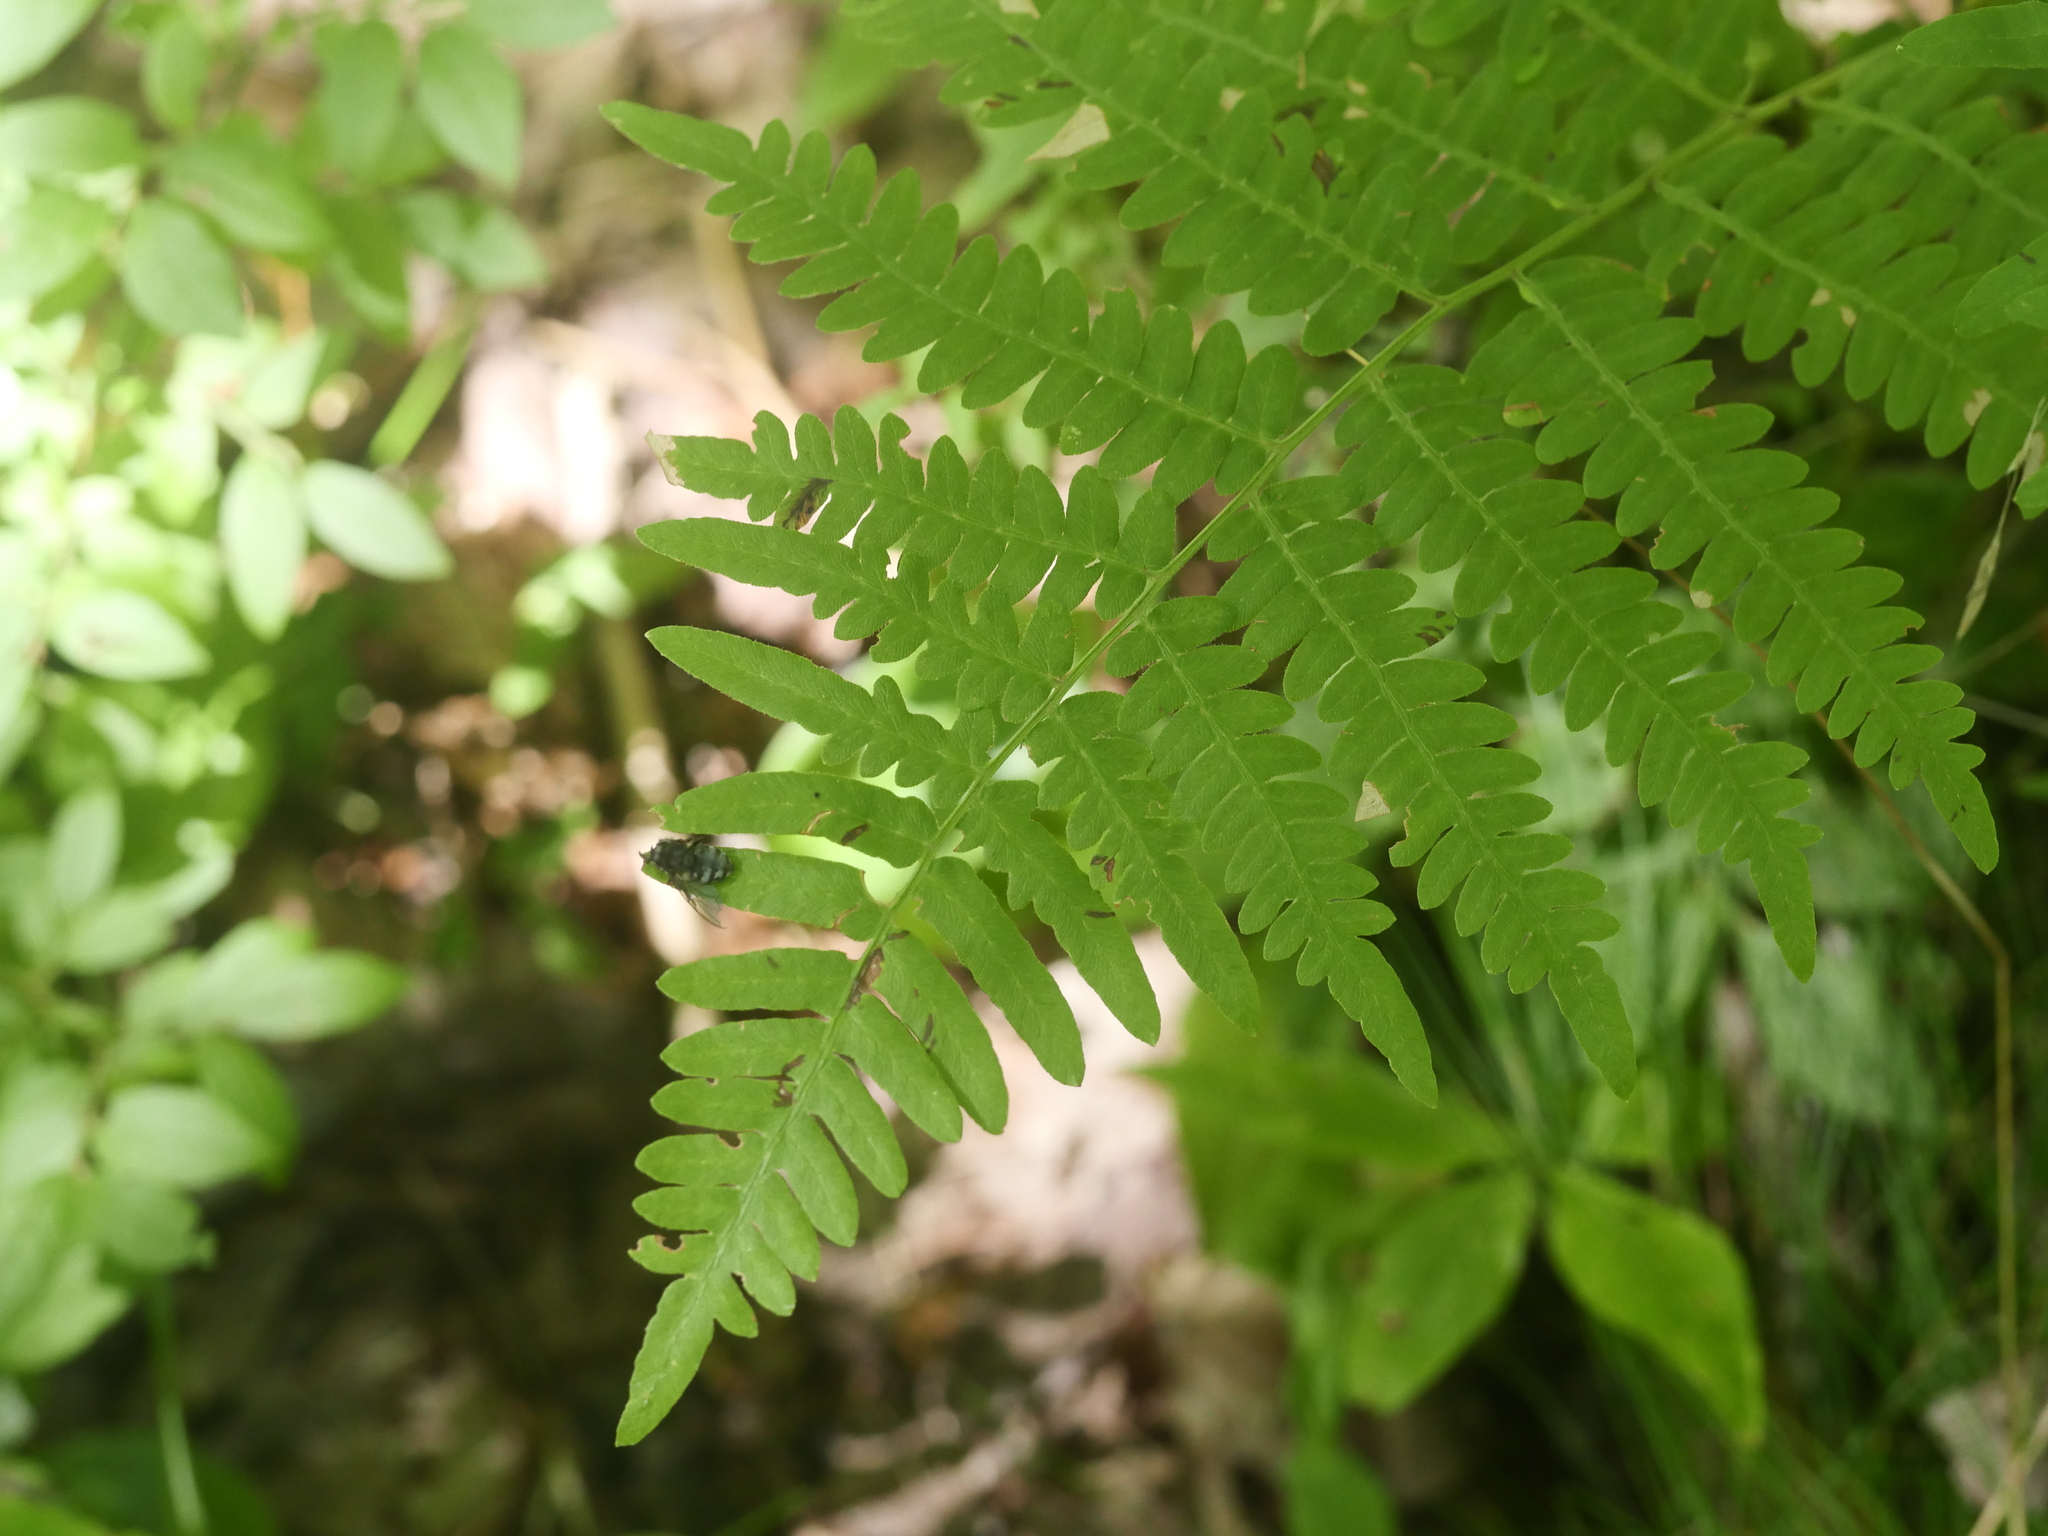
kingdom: Plantae
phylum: Tracheophyta
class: Polypodiopsida
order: Polypodiales
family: Dennstaedtiaceae
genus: Pteridium
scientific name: Pteridium aquilinum
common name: Bracken
